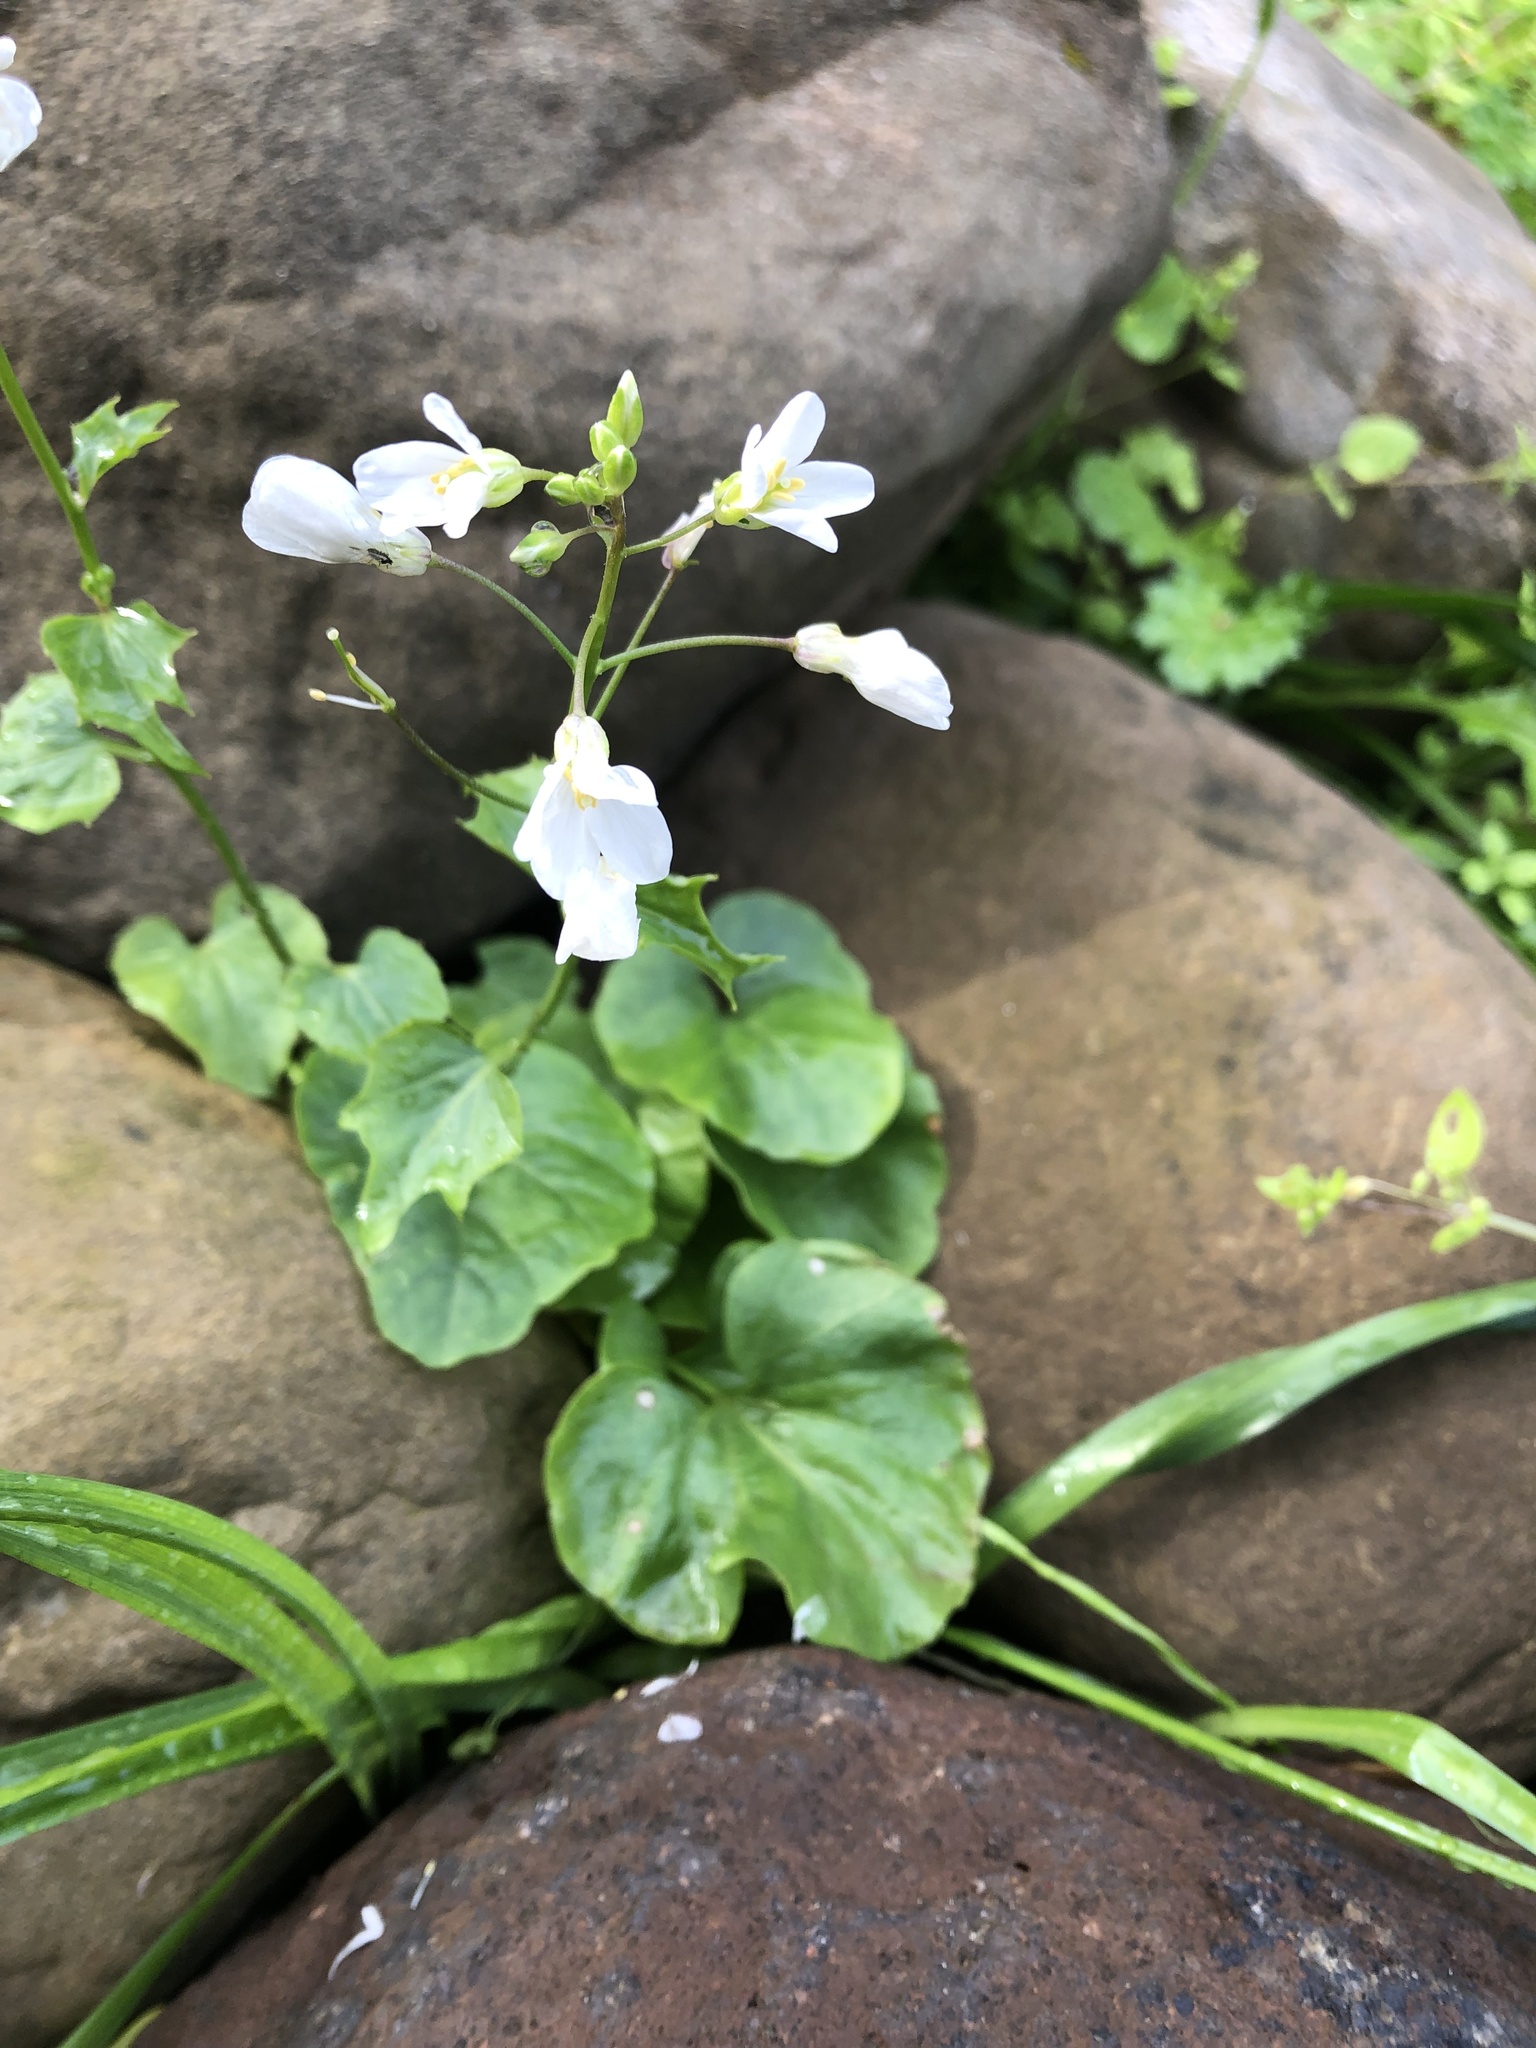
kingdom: Plantae
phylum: Tracheophyta
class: Magnoliopsida
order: Brassicales
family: Brassicaceae
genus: Cardamine
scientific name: Cardamine californica
